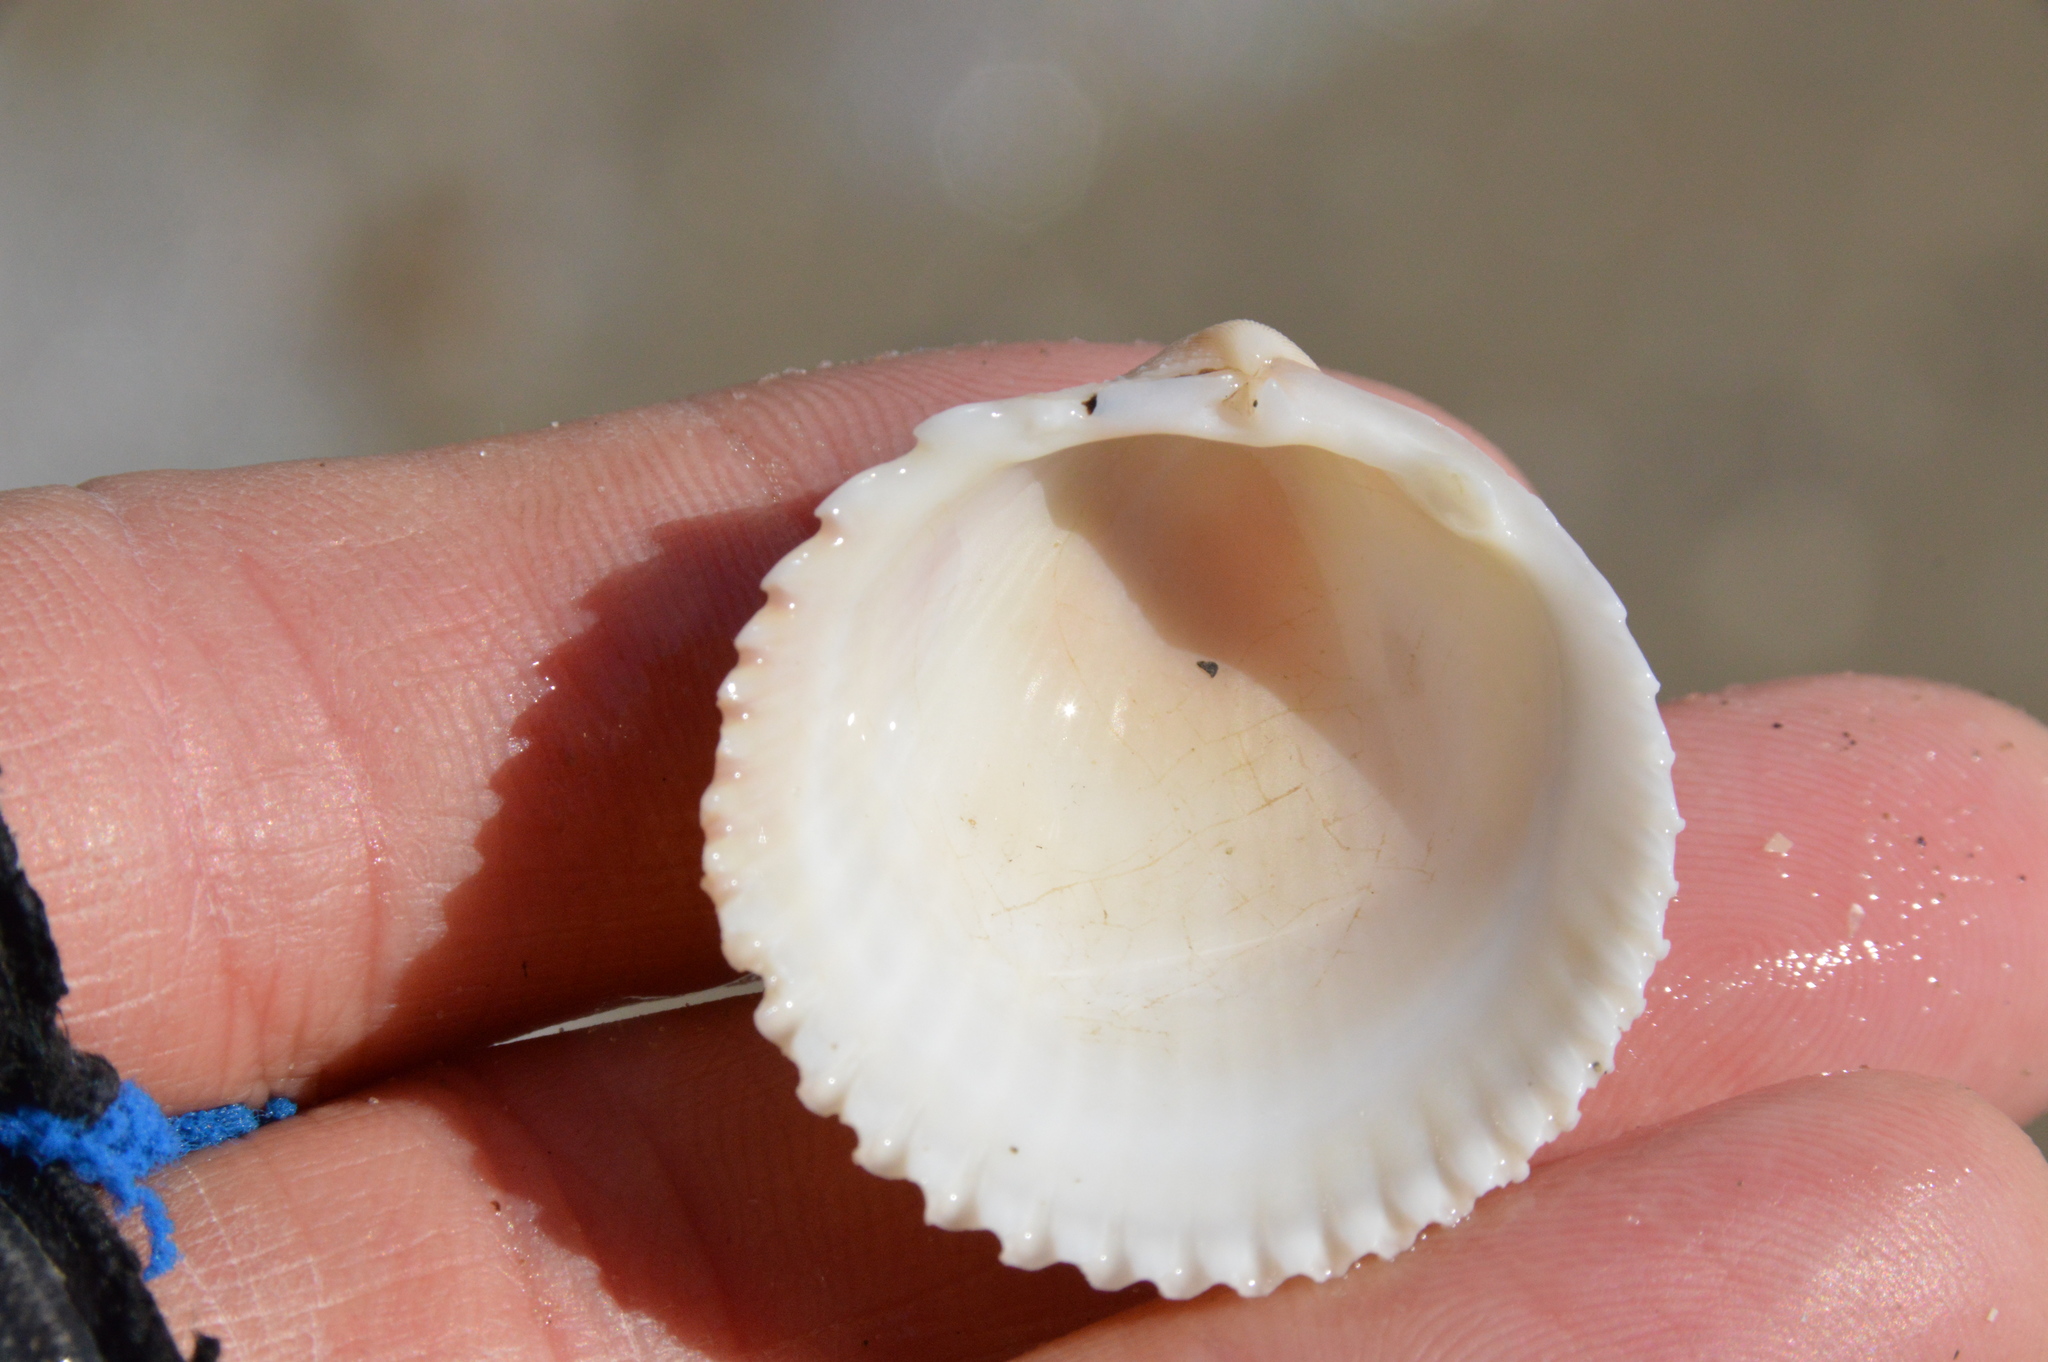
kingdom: Animalia
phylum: Mollusca
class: Bivalvia
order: Cardiida
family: Cardiidae
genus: Dallocardia
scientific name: Dallocardia muricata
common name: Yellow pricklycockle
